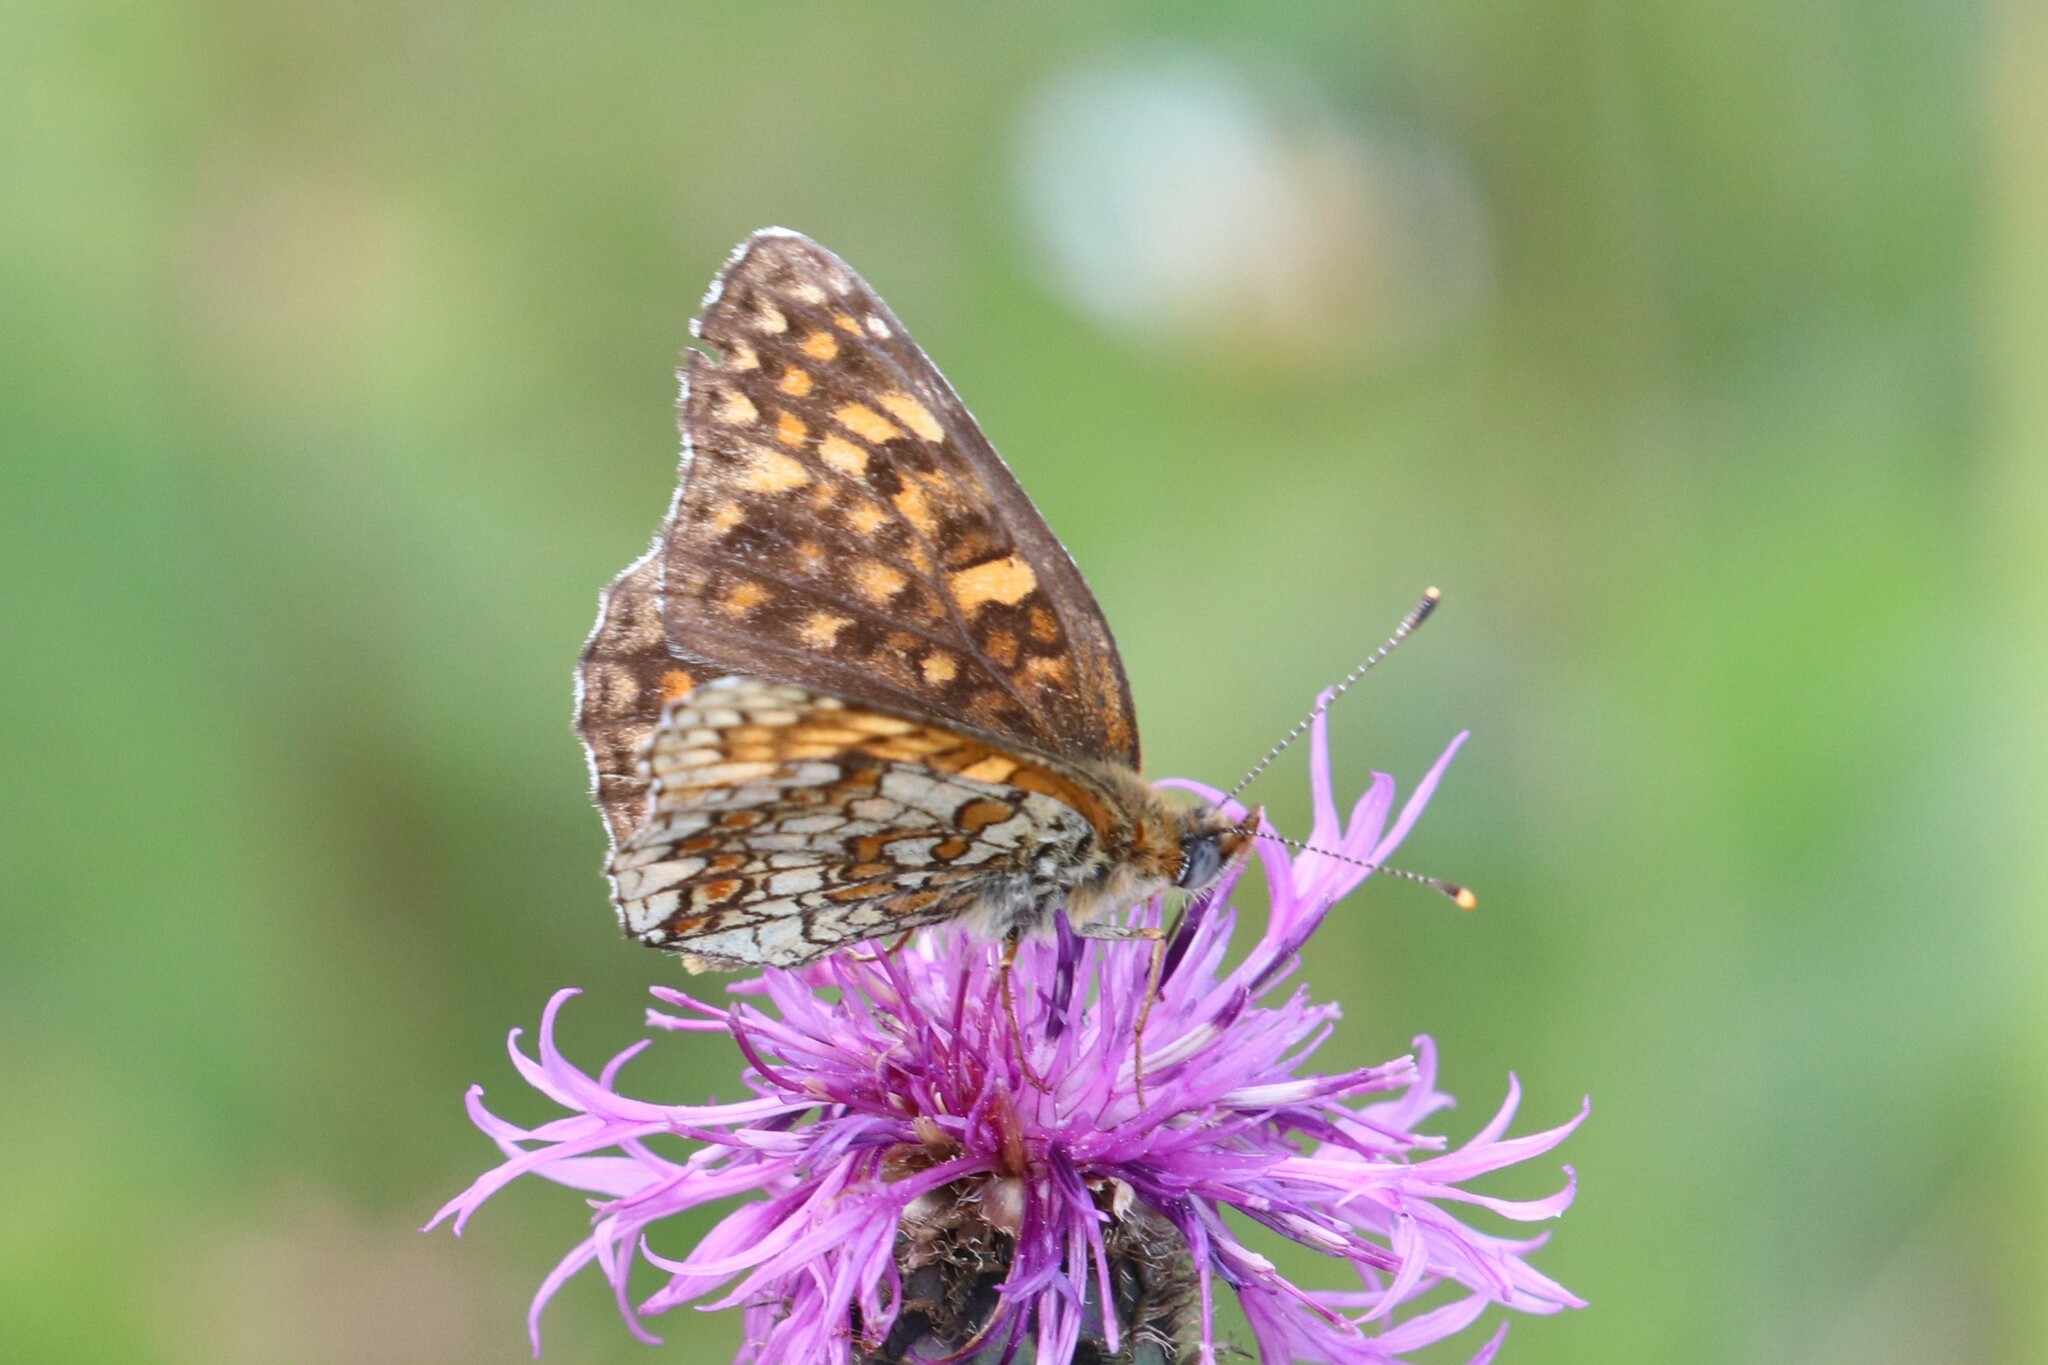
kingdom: Animalia
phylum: Arthropoda
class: Insecta
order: Lepidoptera
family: Nymphalidae
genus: Melitaea
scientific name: Melitaea phoebe
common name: Knapweed fritillary
